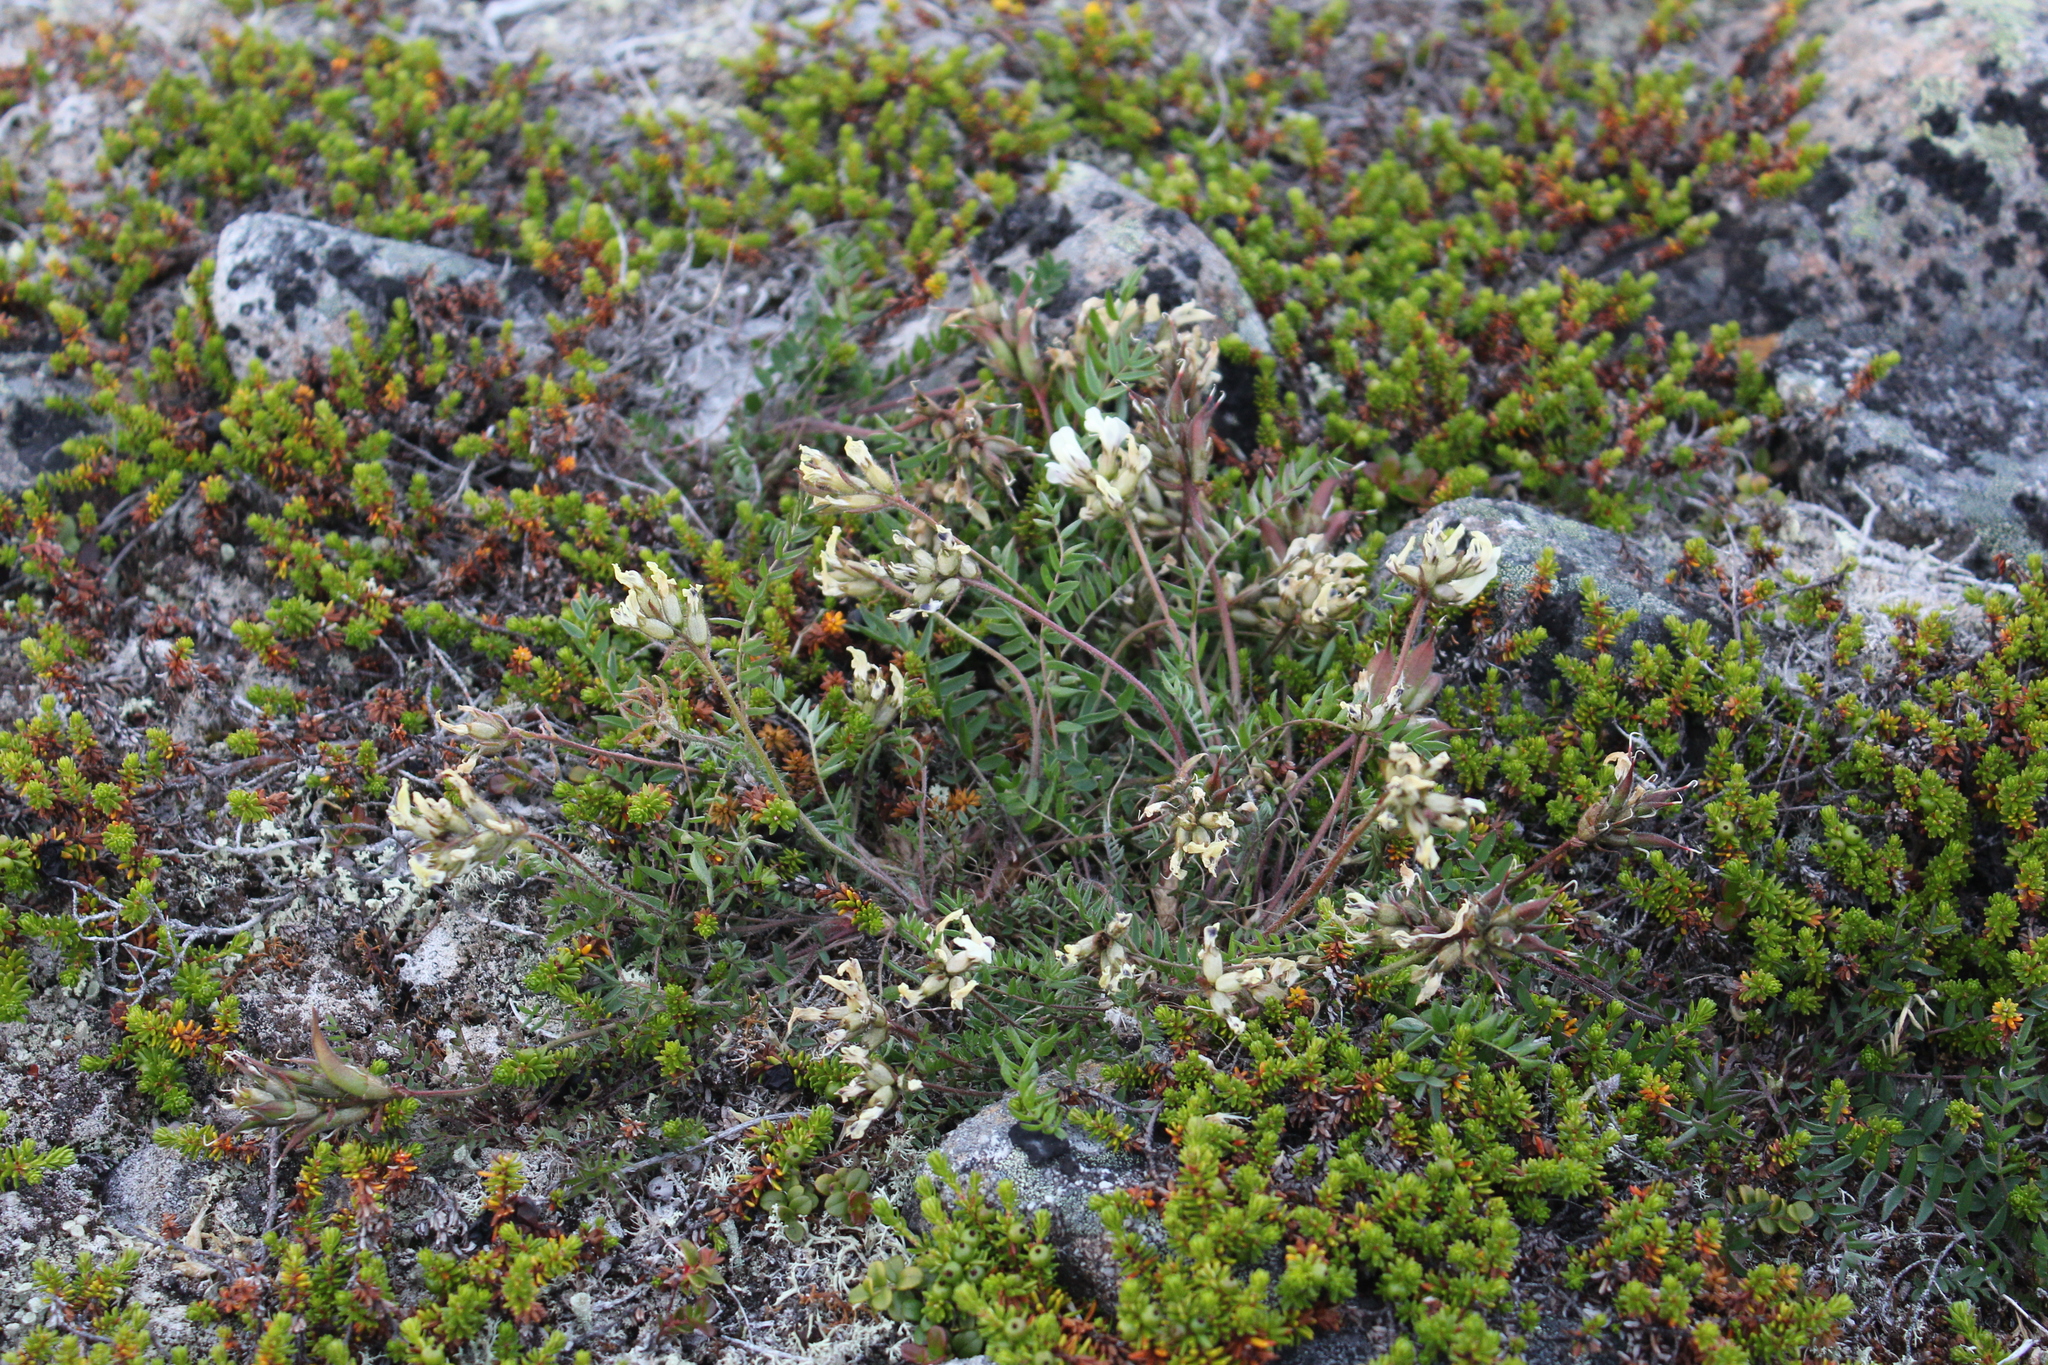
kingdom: Plantae
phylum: Tracheophyta
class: Magnoliopsida
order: Fabales
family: Fabaceae
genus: Oxytropis
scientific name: Oxytropis sordida
